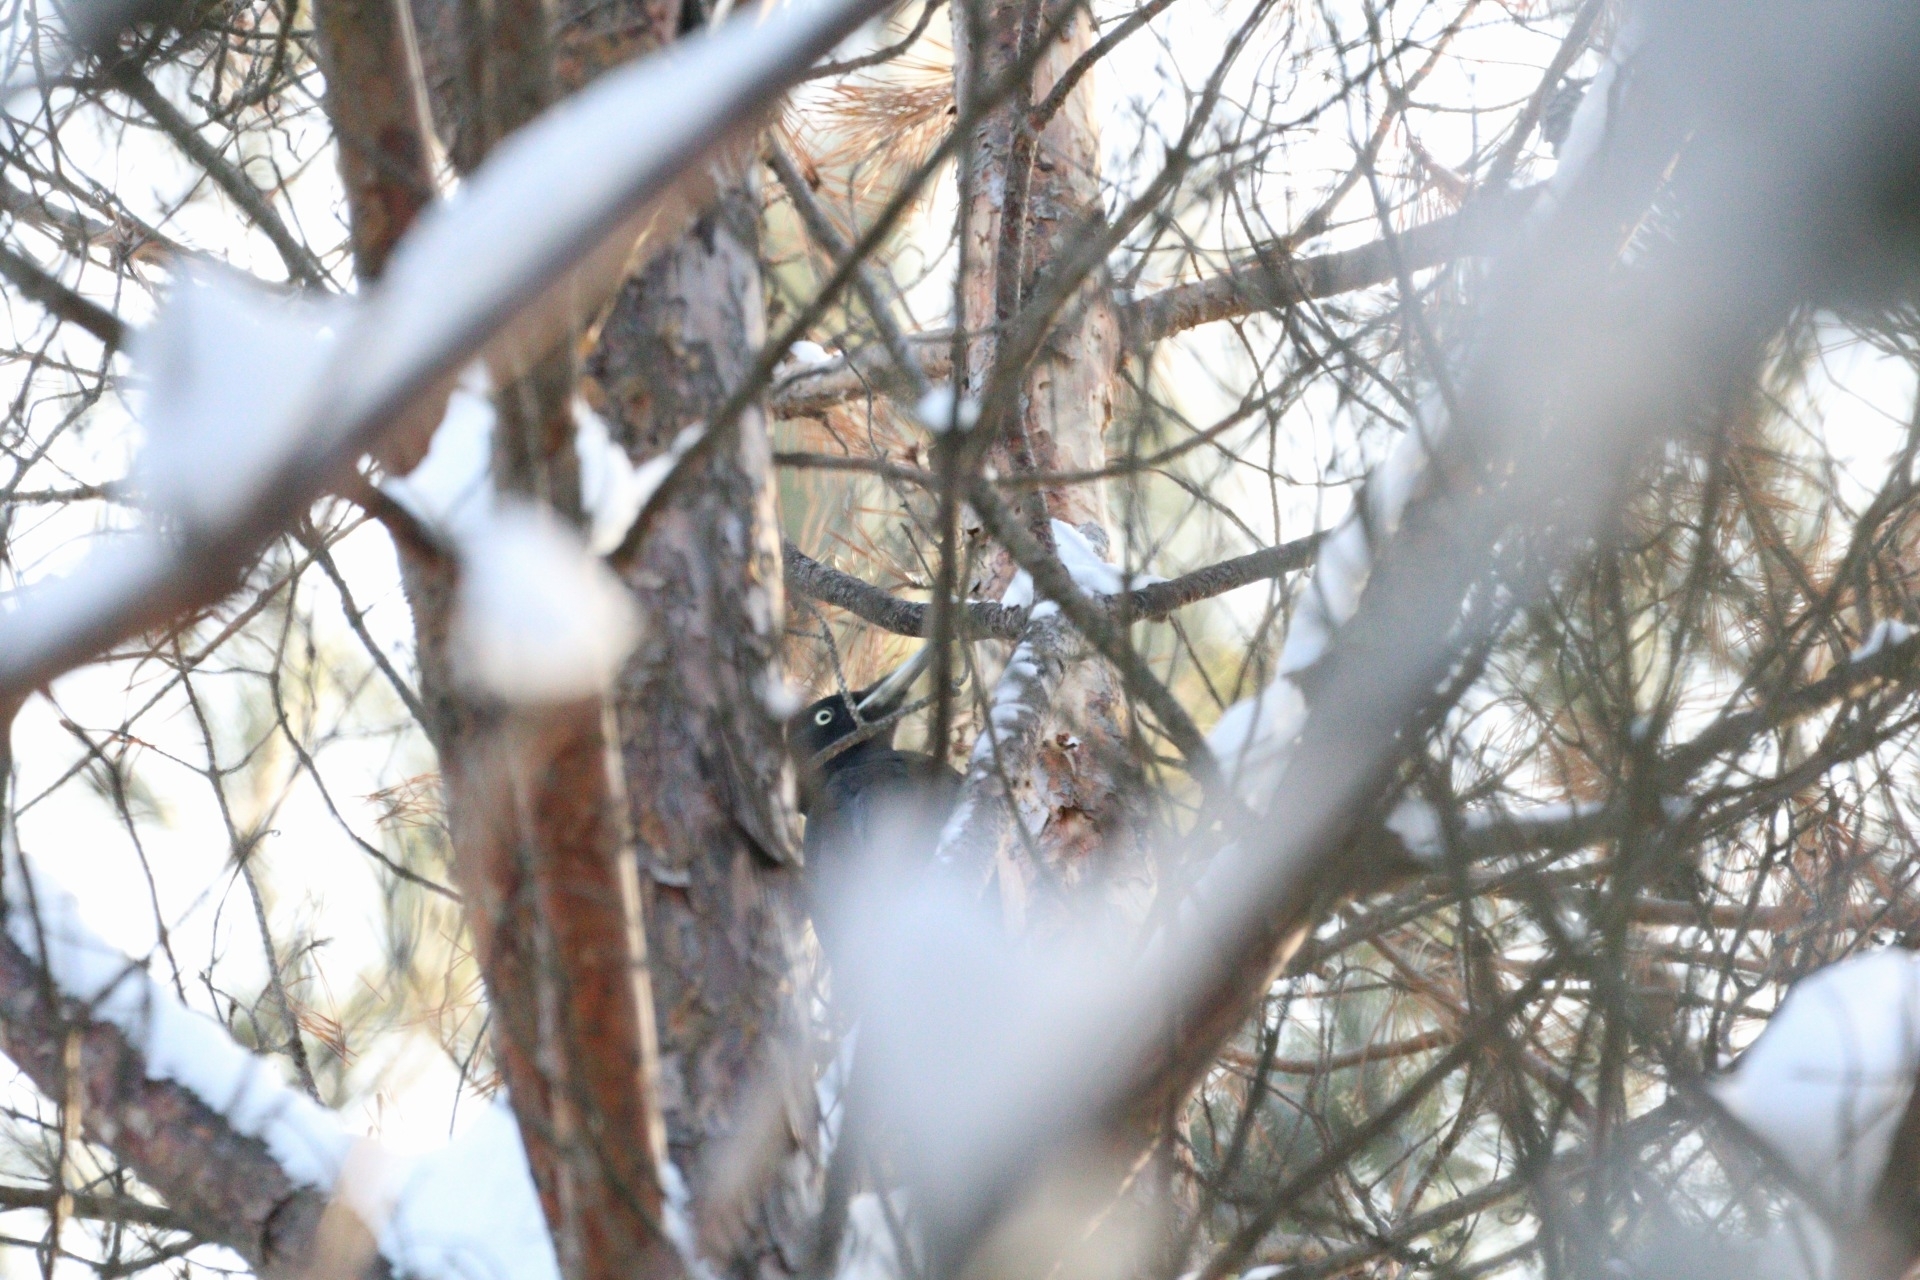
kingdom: Animalia
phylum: Chordata
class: Aves
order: Piciformes
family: Picidae
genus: Dryocopus
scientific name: Dryocopus martius
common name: Black woodpecker
